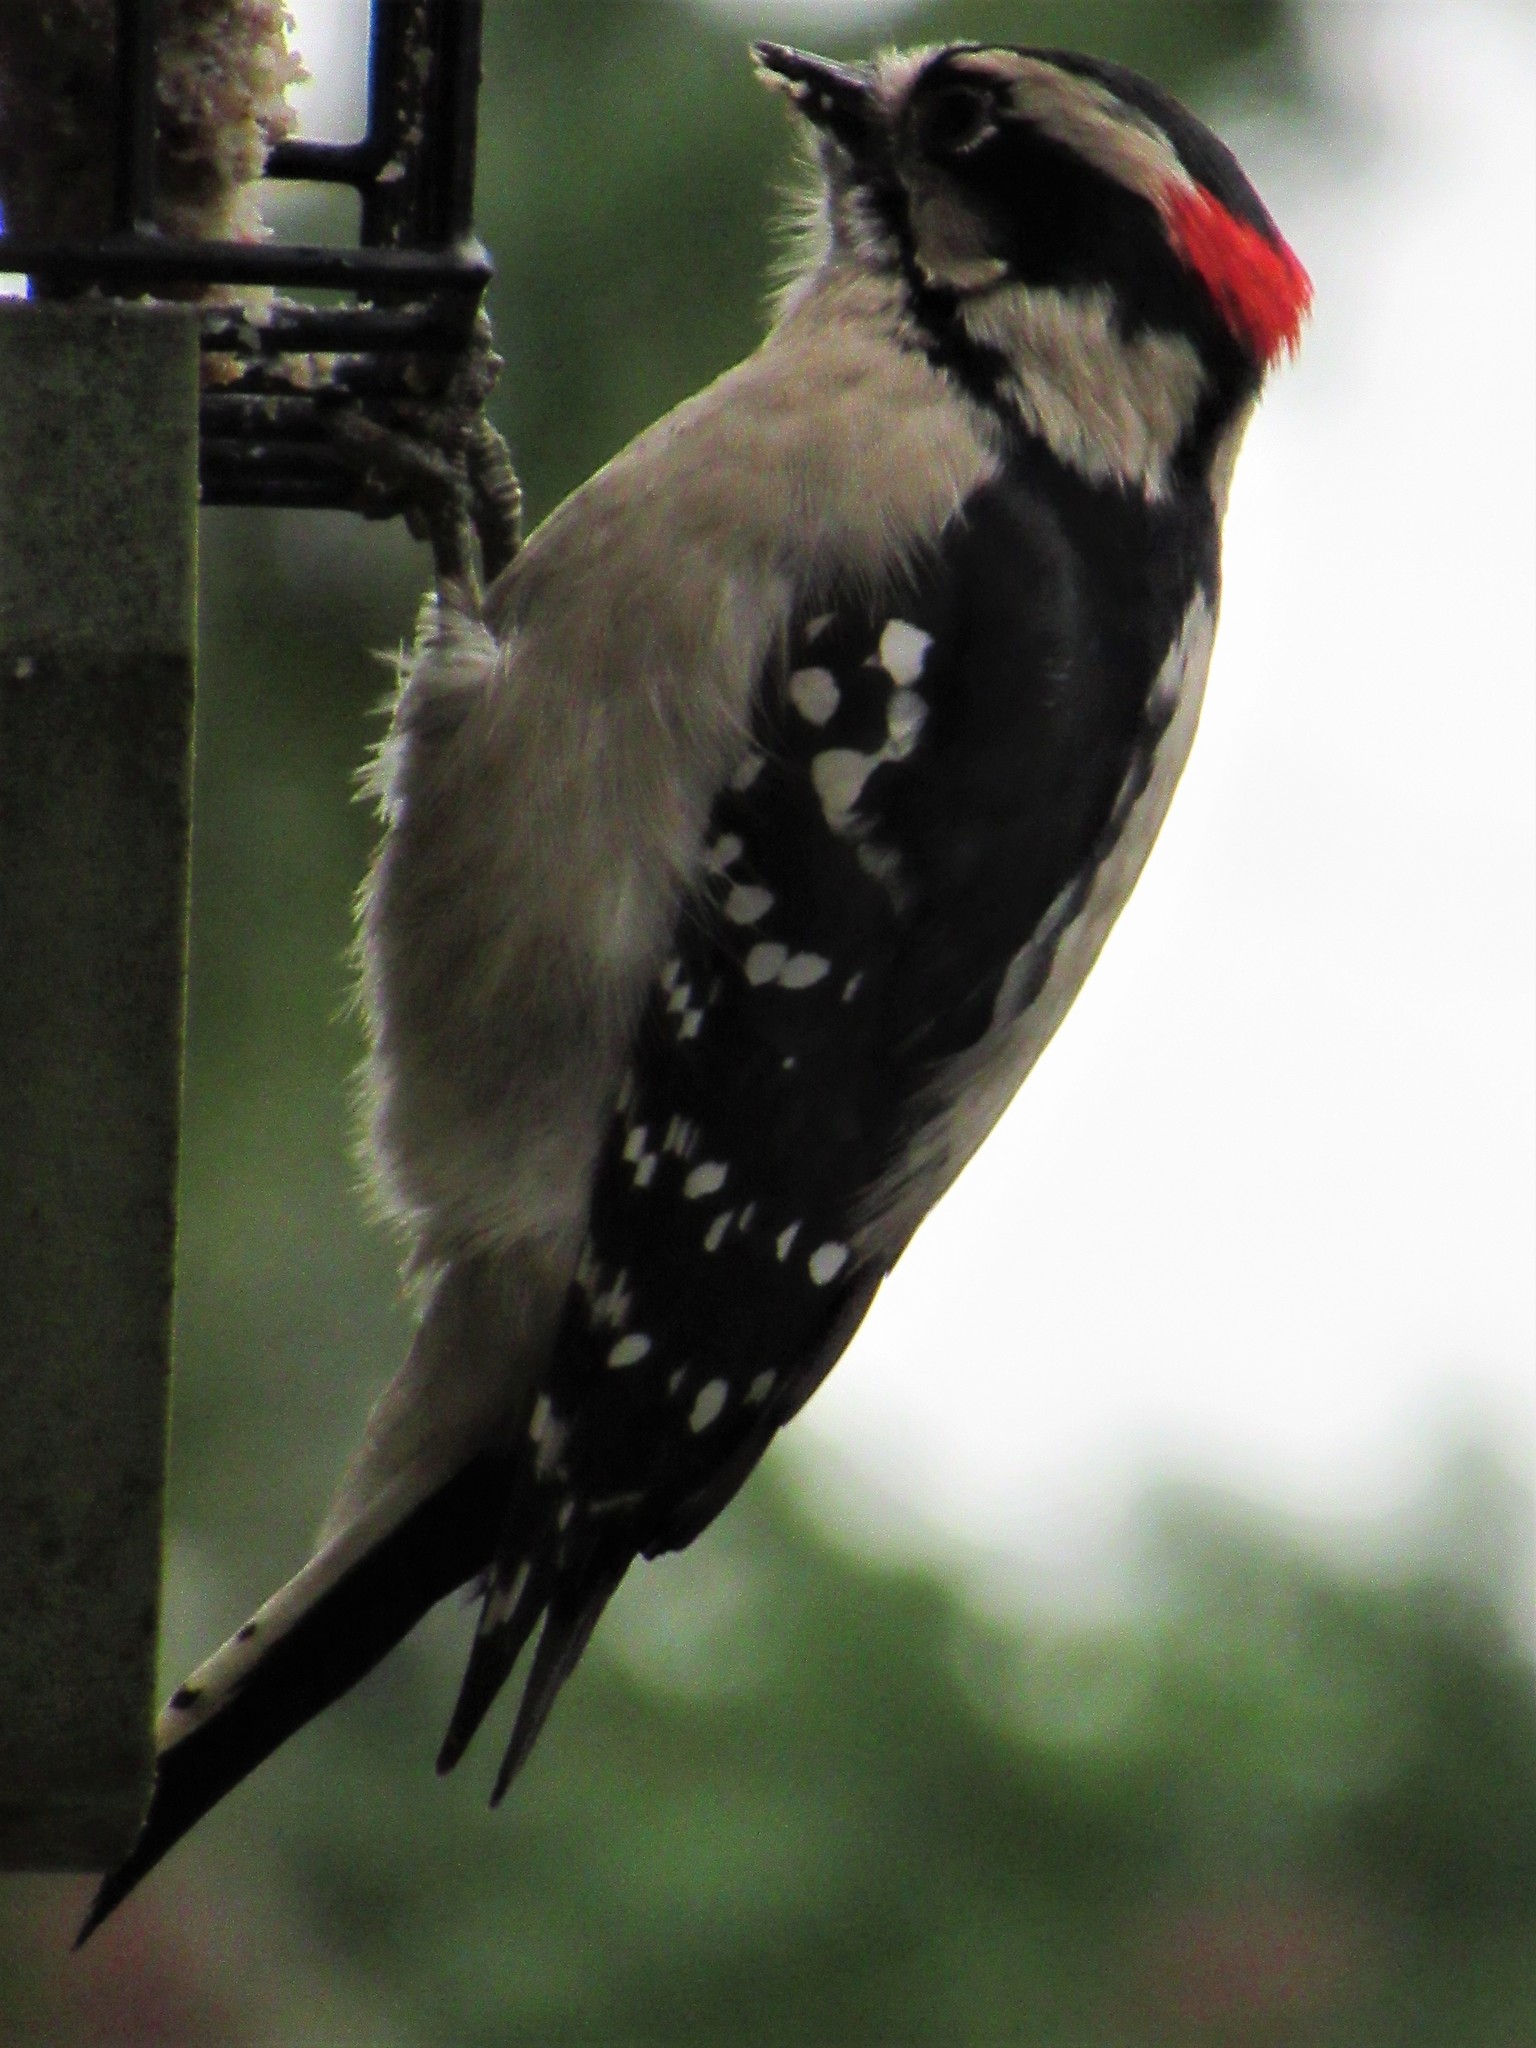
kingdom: Animalia
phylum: Chordata
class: Aves
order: Piciformes
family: Picidae
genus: Dryobates
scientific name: Dryobates pubescens
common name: Downy woodpecker
